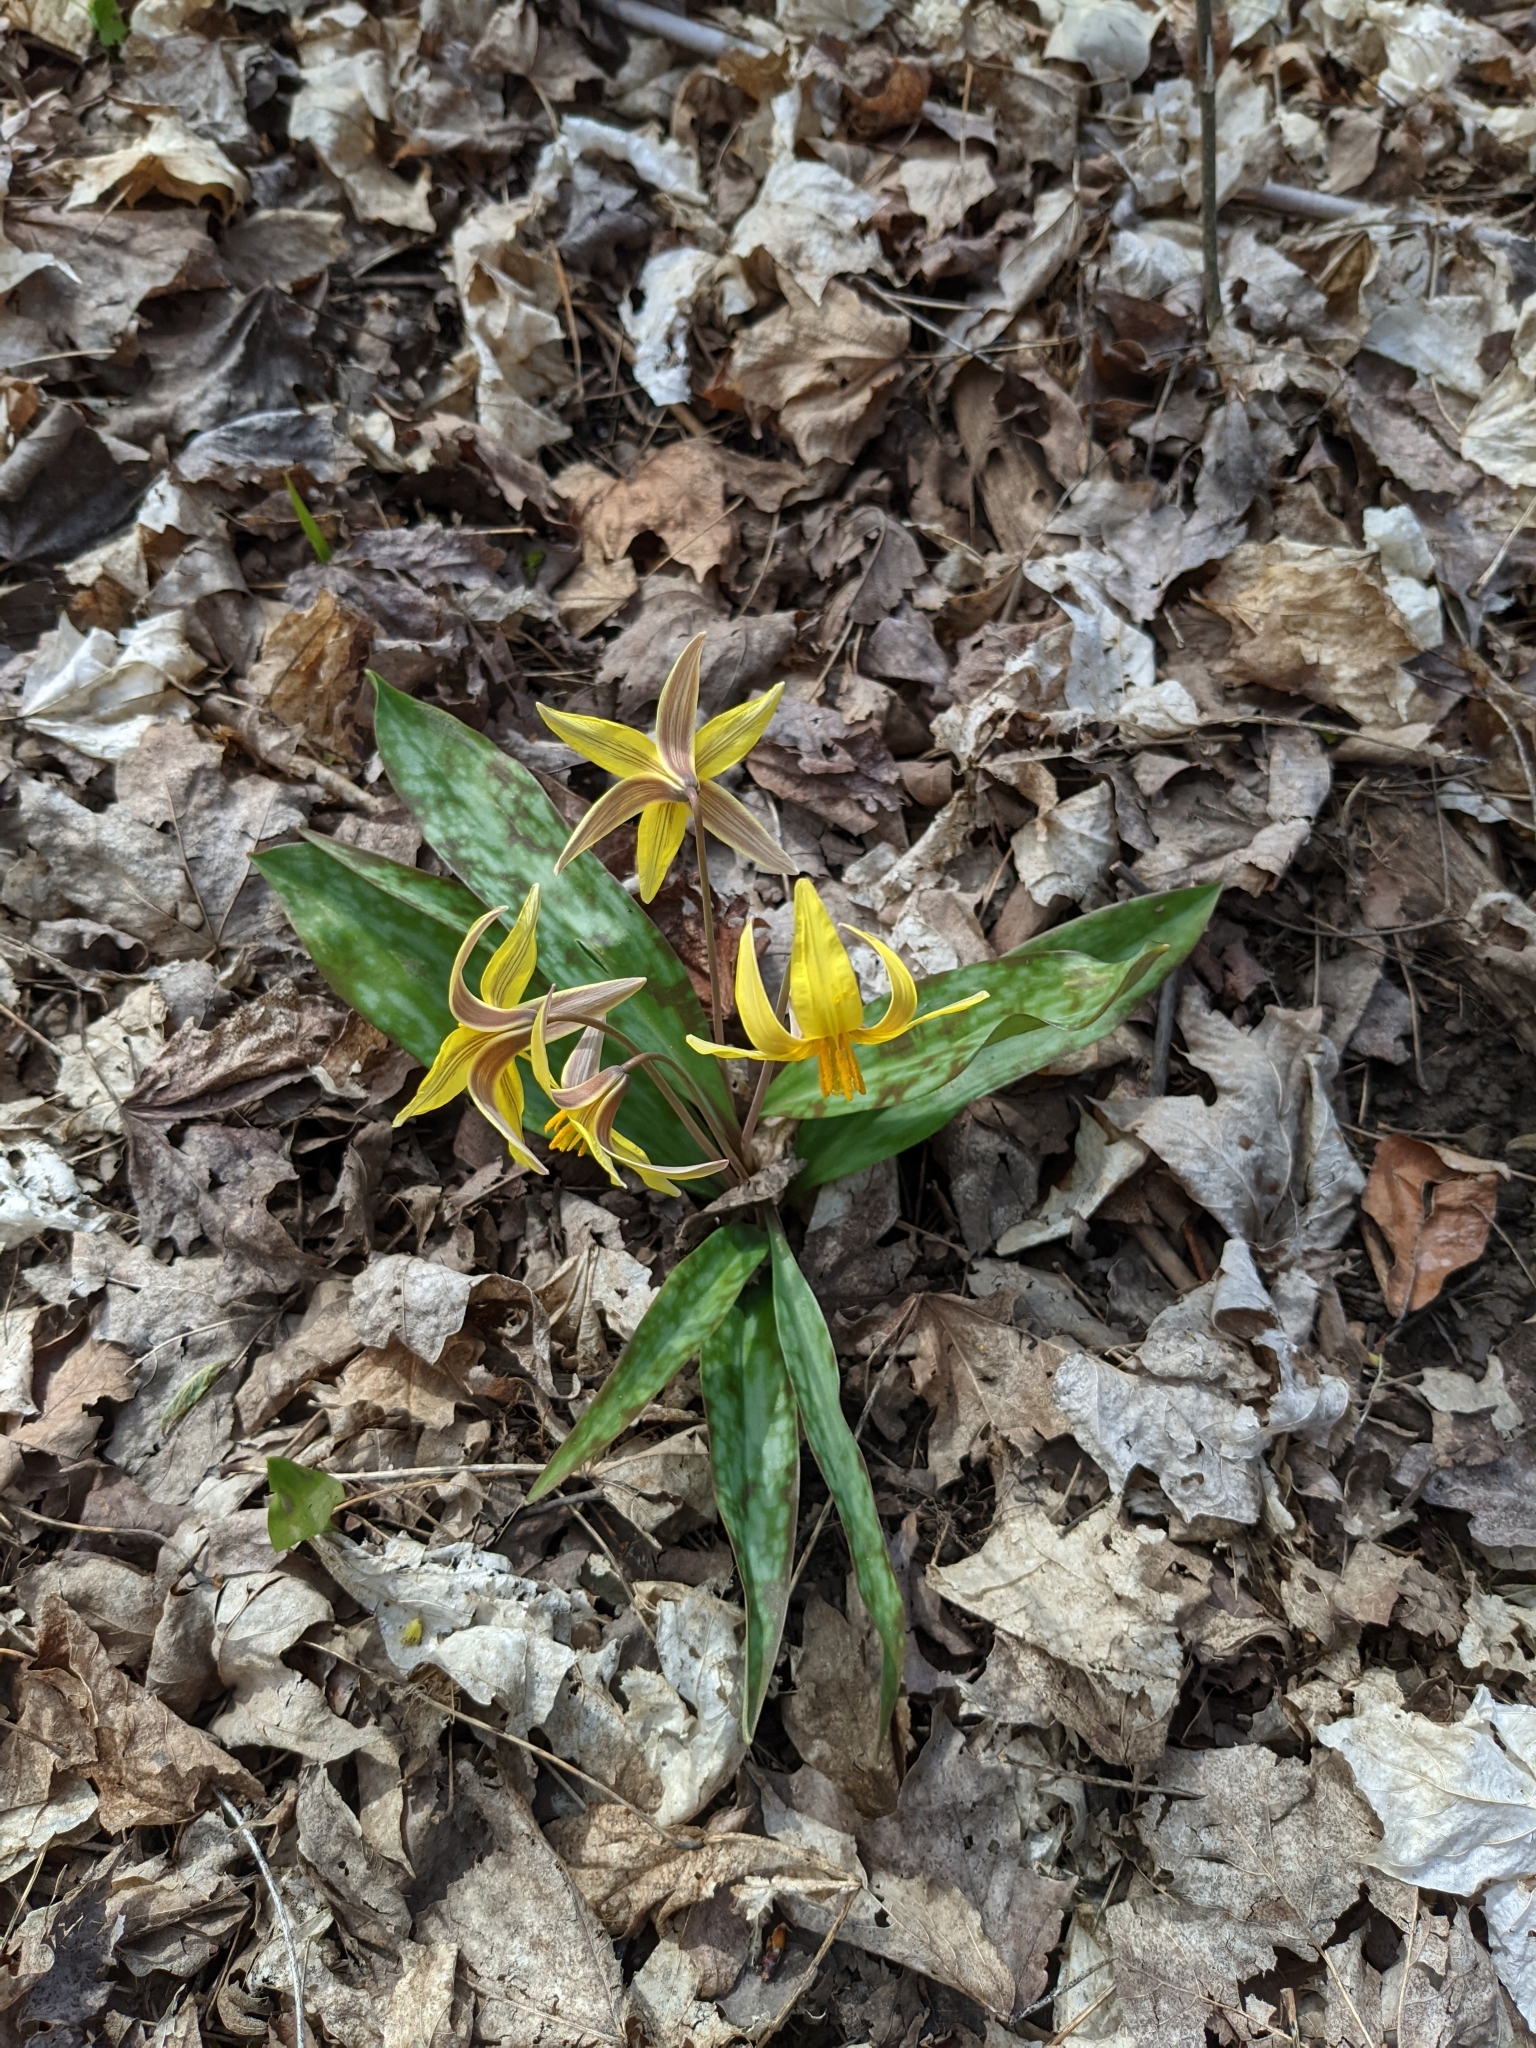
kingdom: Plantae
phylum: Tracheophyta
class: Liliopsida
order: Liliales
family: Liliaceae
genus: Erythronium
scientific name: Erythronium americanum
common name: Yellow adder's-tongue
